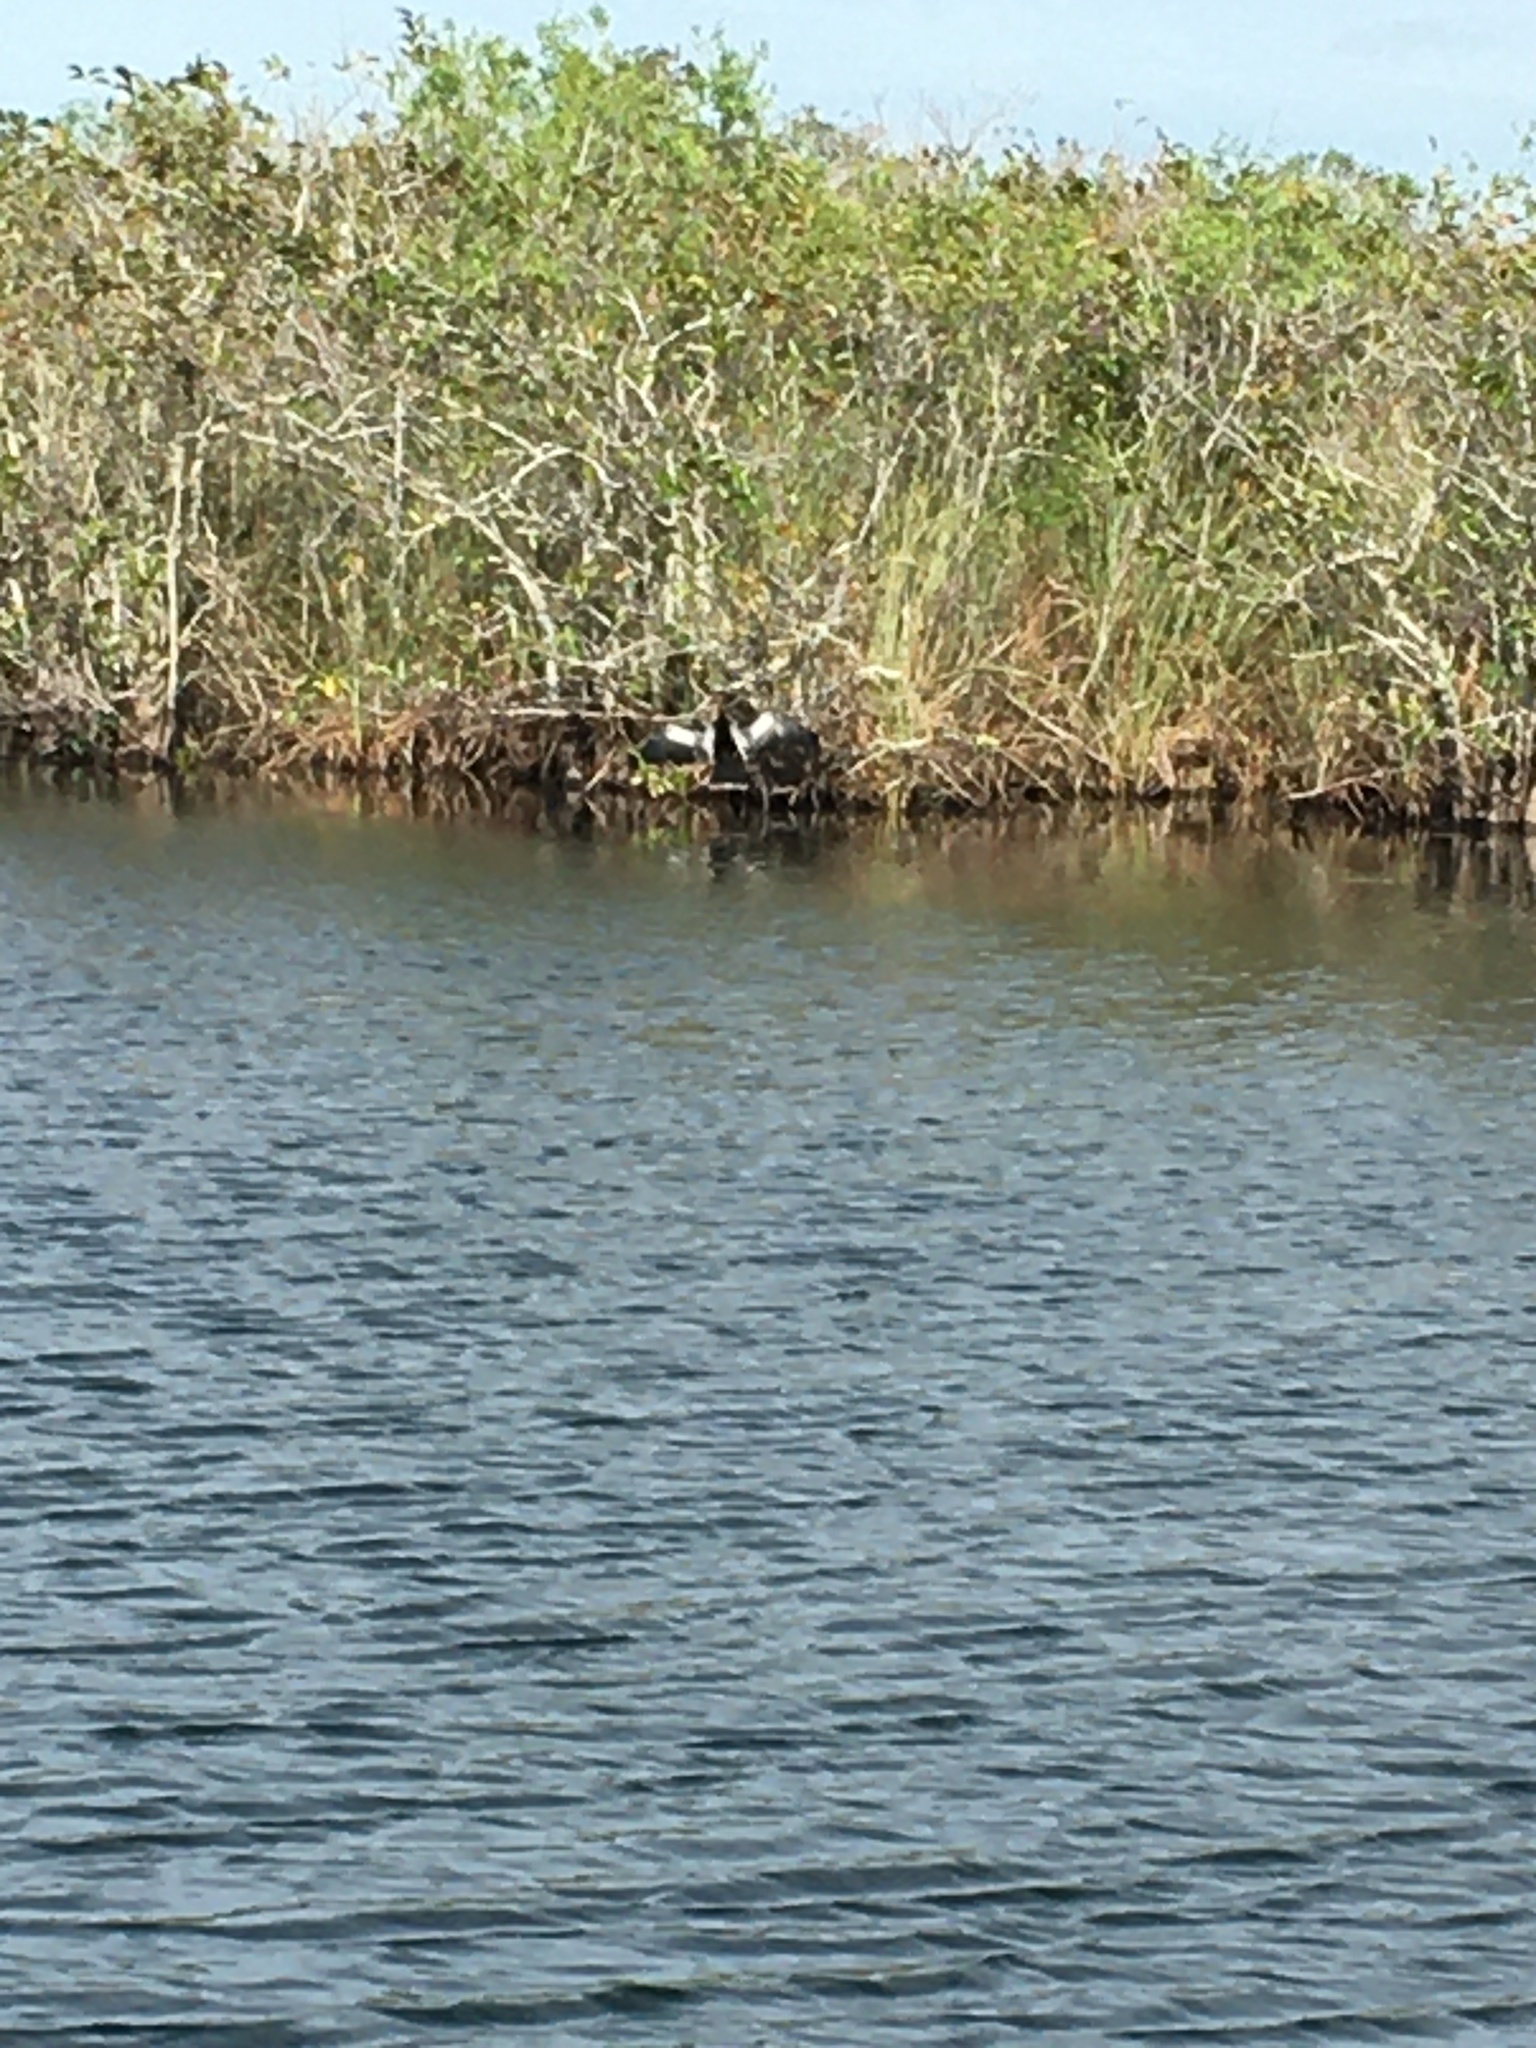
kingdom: Animalia
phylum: Chordata
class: Aves
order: Suliformes
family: Anhingidae
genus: Anhinga
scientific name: Anhinga anhinga
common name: Anhinga
